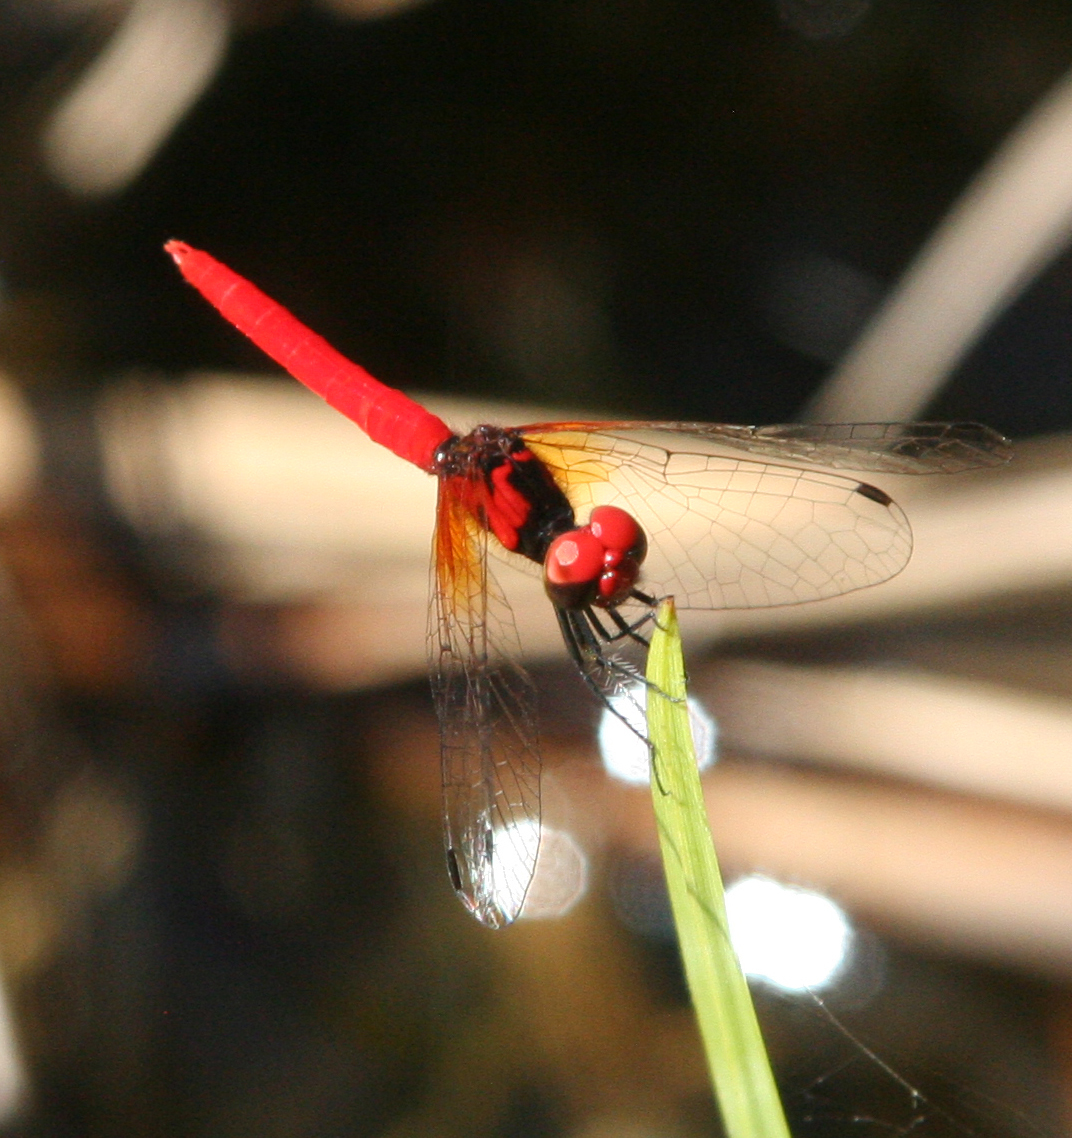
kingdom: Animalia
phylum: Arthropoda
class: Insecta
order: Odonata
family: Libellulidae
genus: Nannophya
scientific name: Nannophya pygmaea
